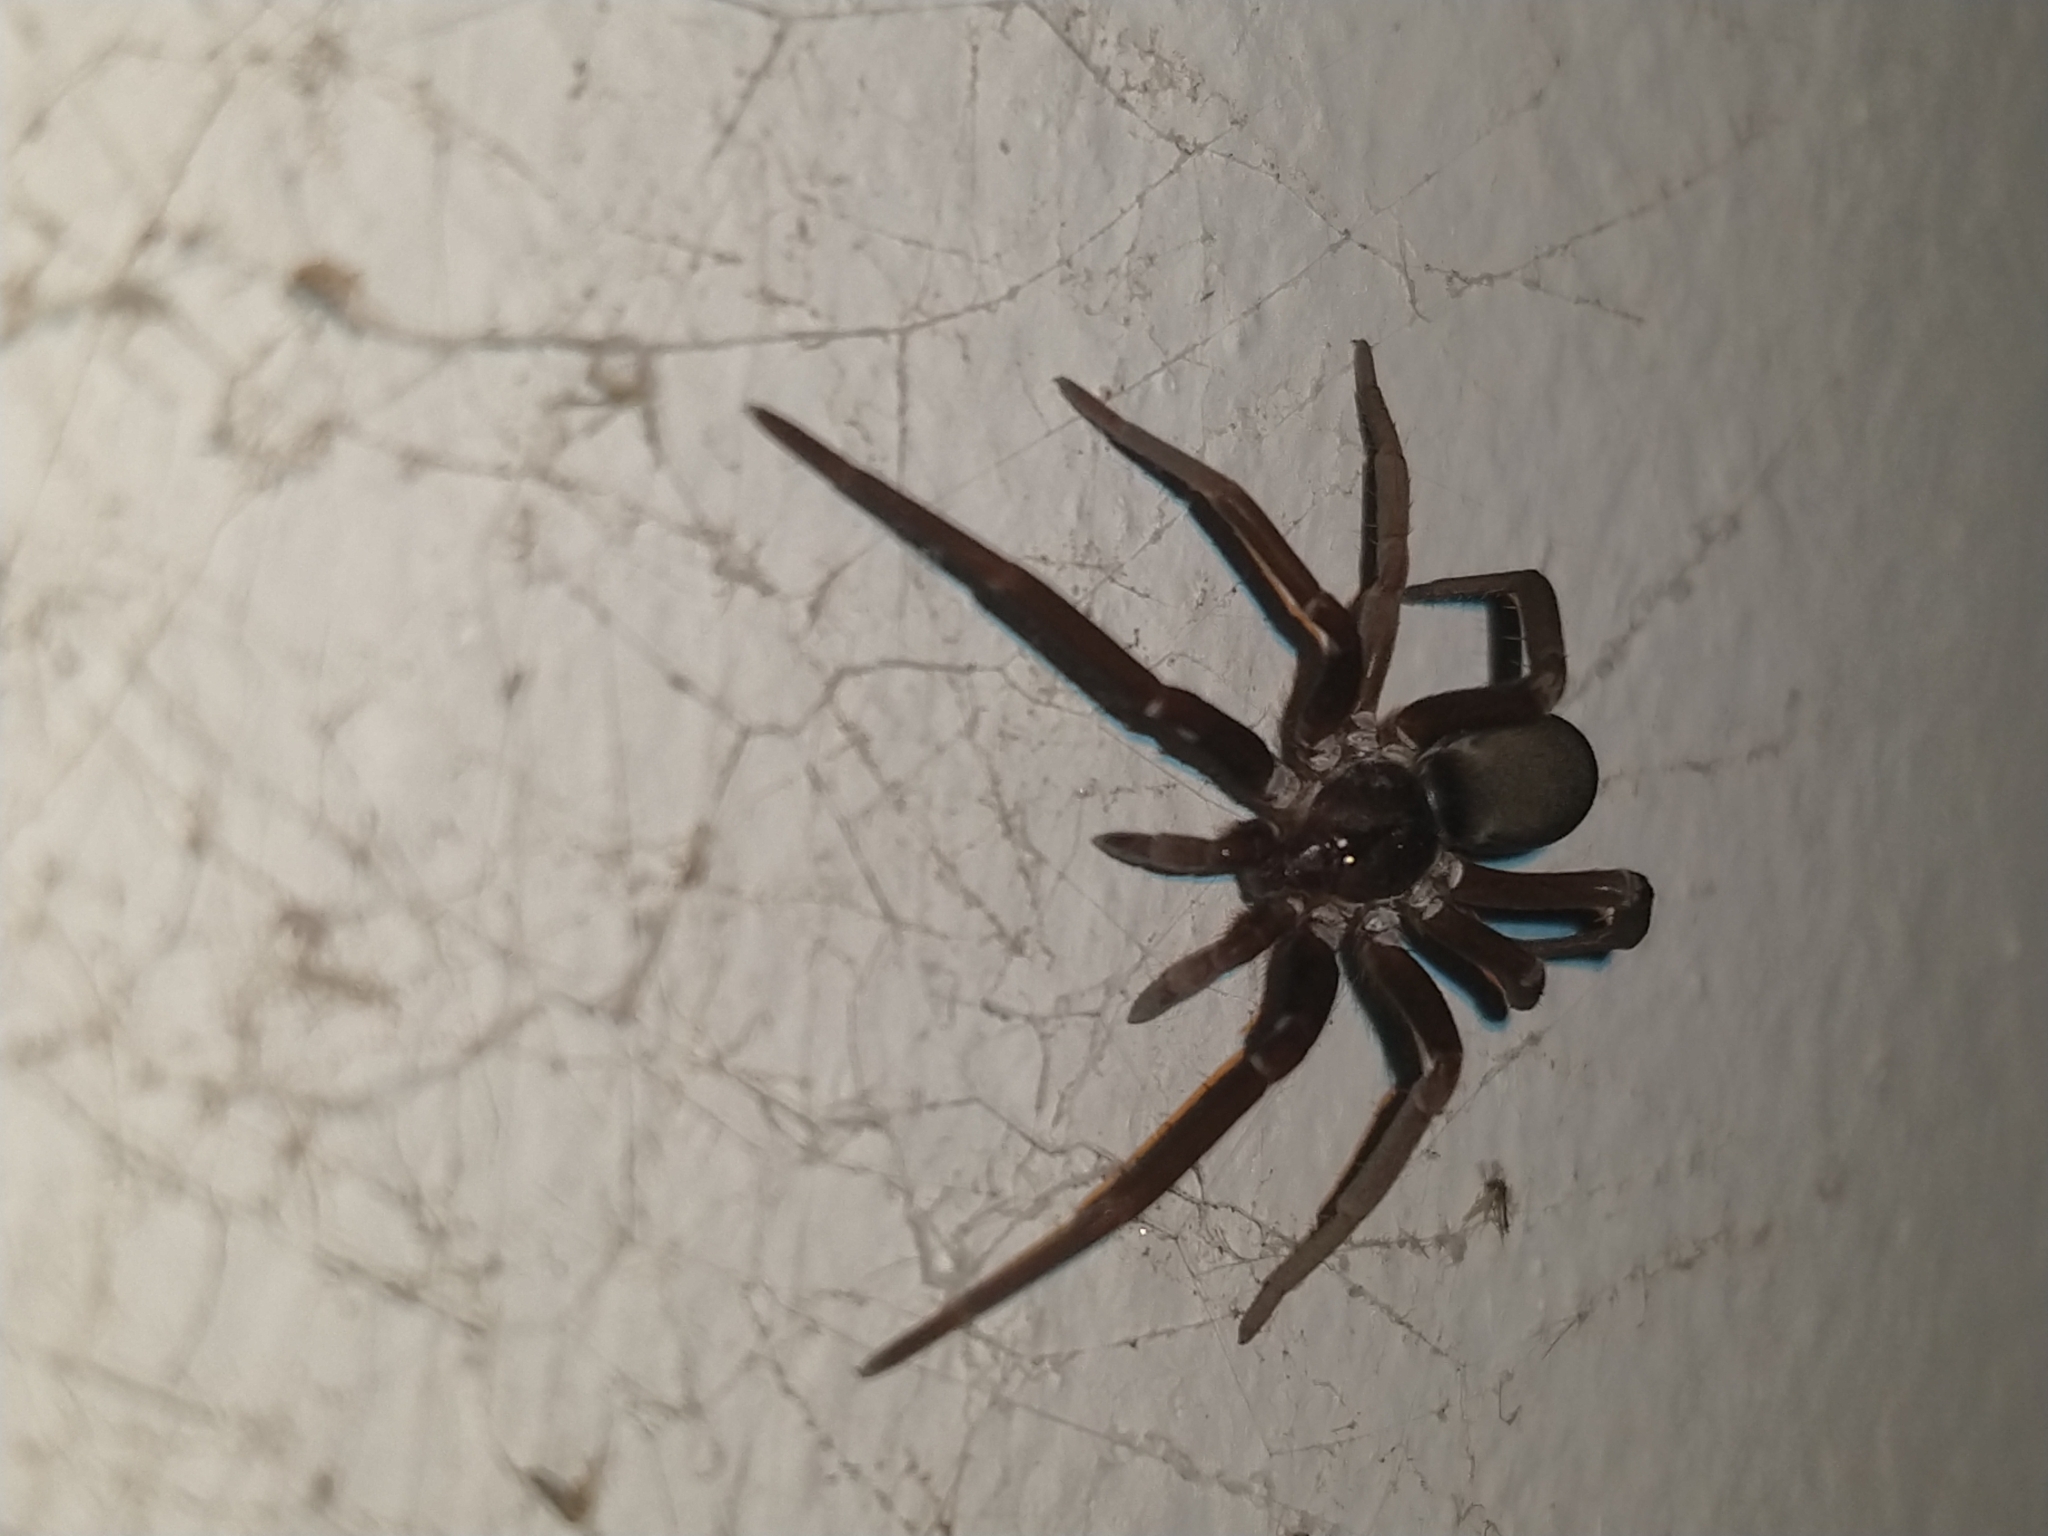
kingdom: Animalia
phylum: Arthropoda
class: Arachnida
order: Araneae
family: Filistatidae
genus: Kukulcania
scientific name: Kukulcania hibernalis
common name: Crevice weaver
